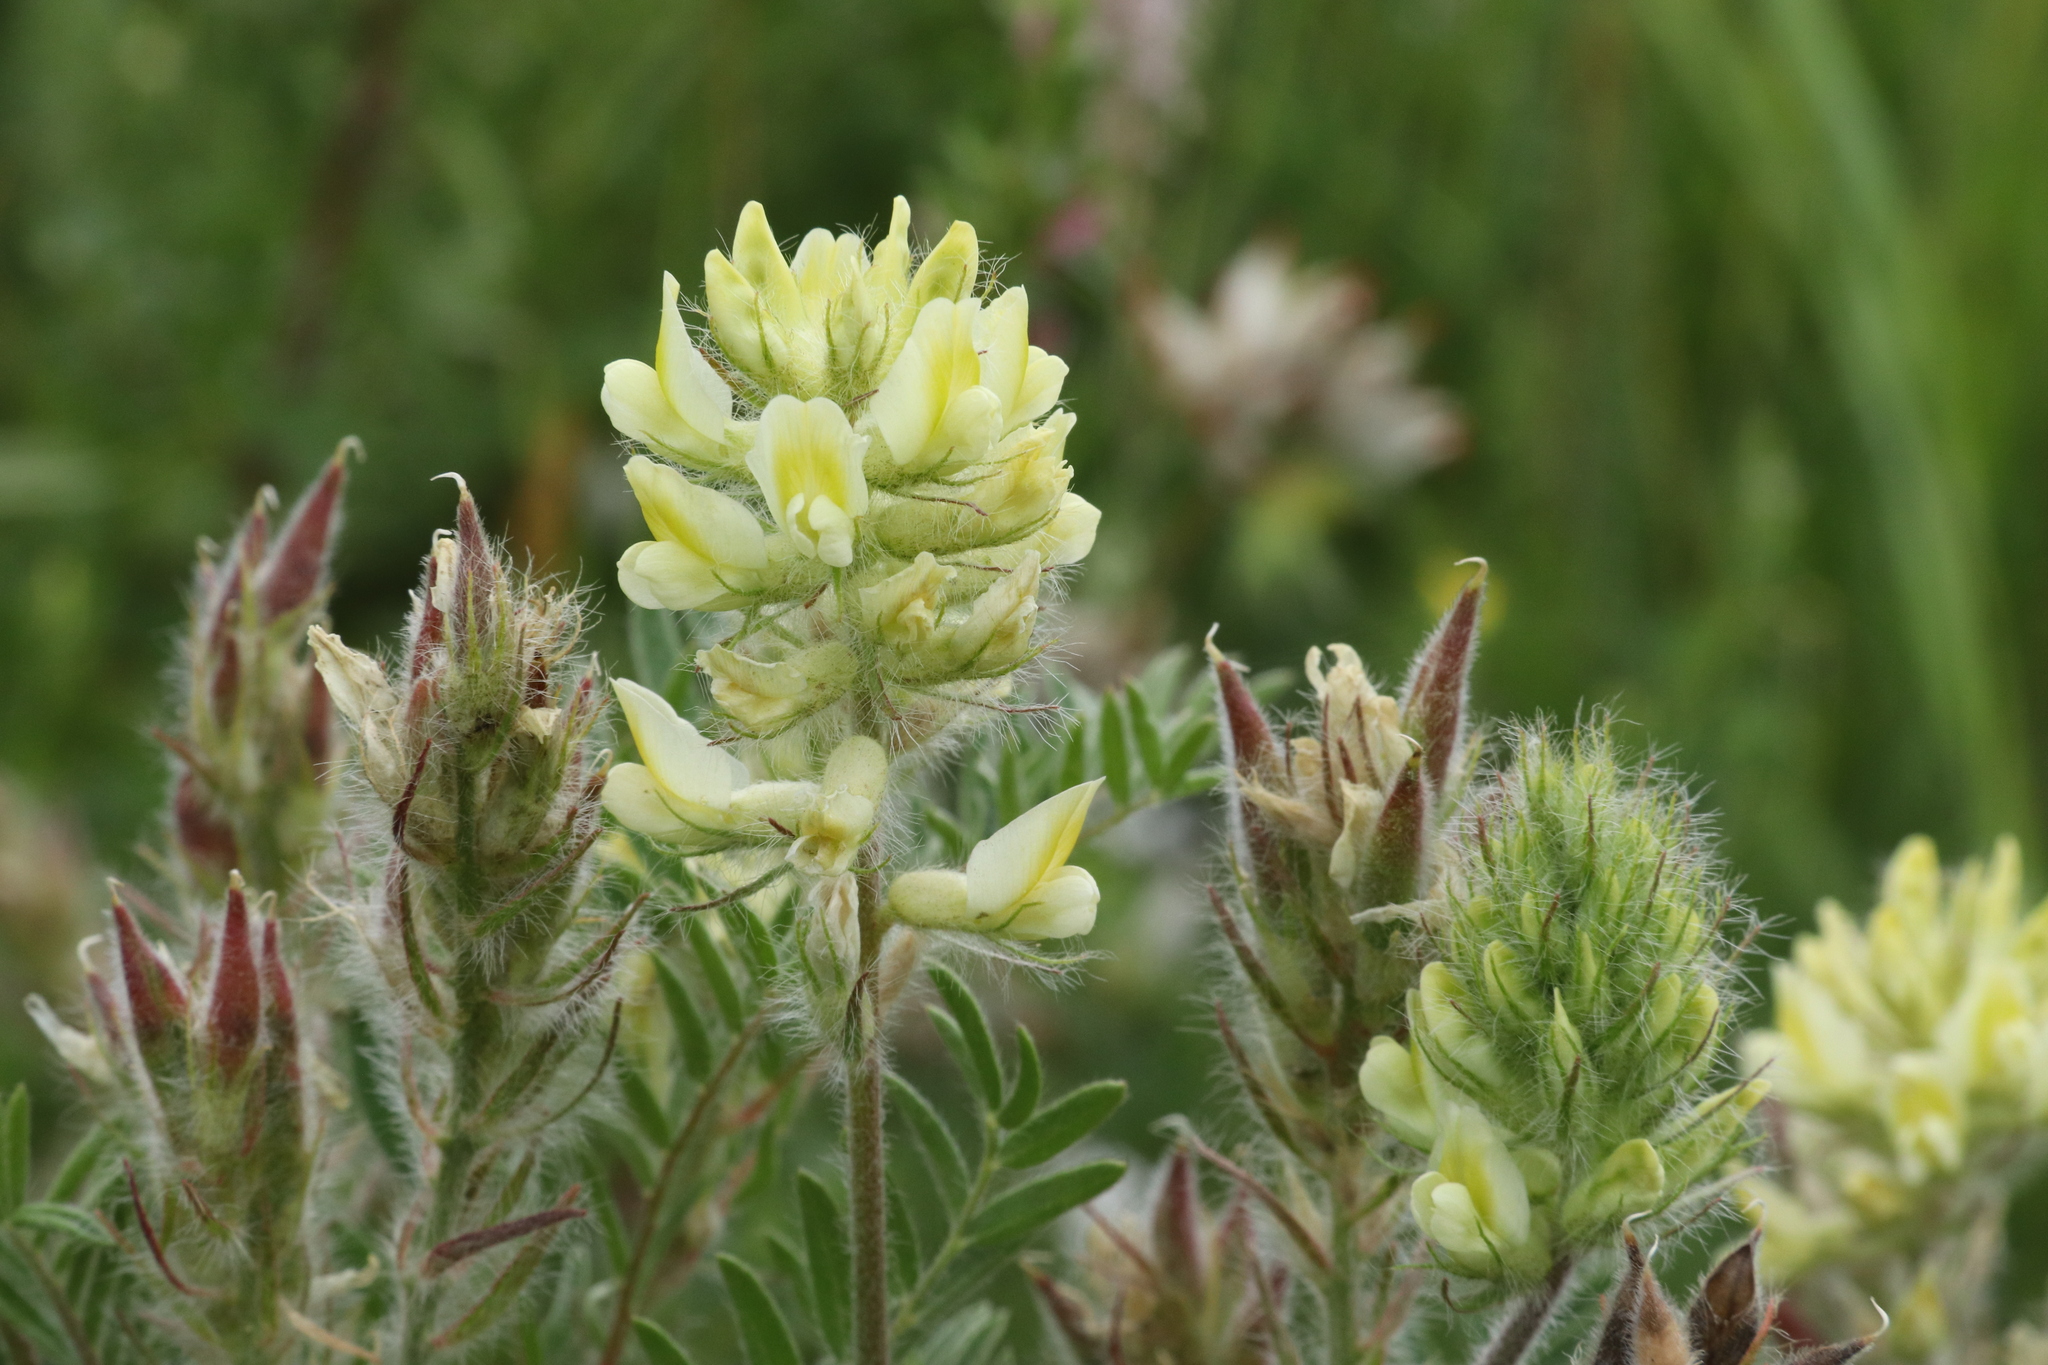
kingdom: Plantae
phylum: Tracheophyta
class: Magnoliopsida
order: Fabales
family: Fabaceae
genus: Oxytropis
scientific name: Oxytropis pilosa
